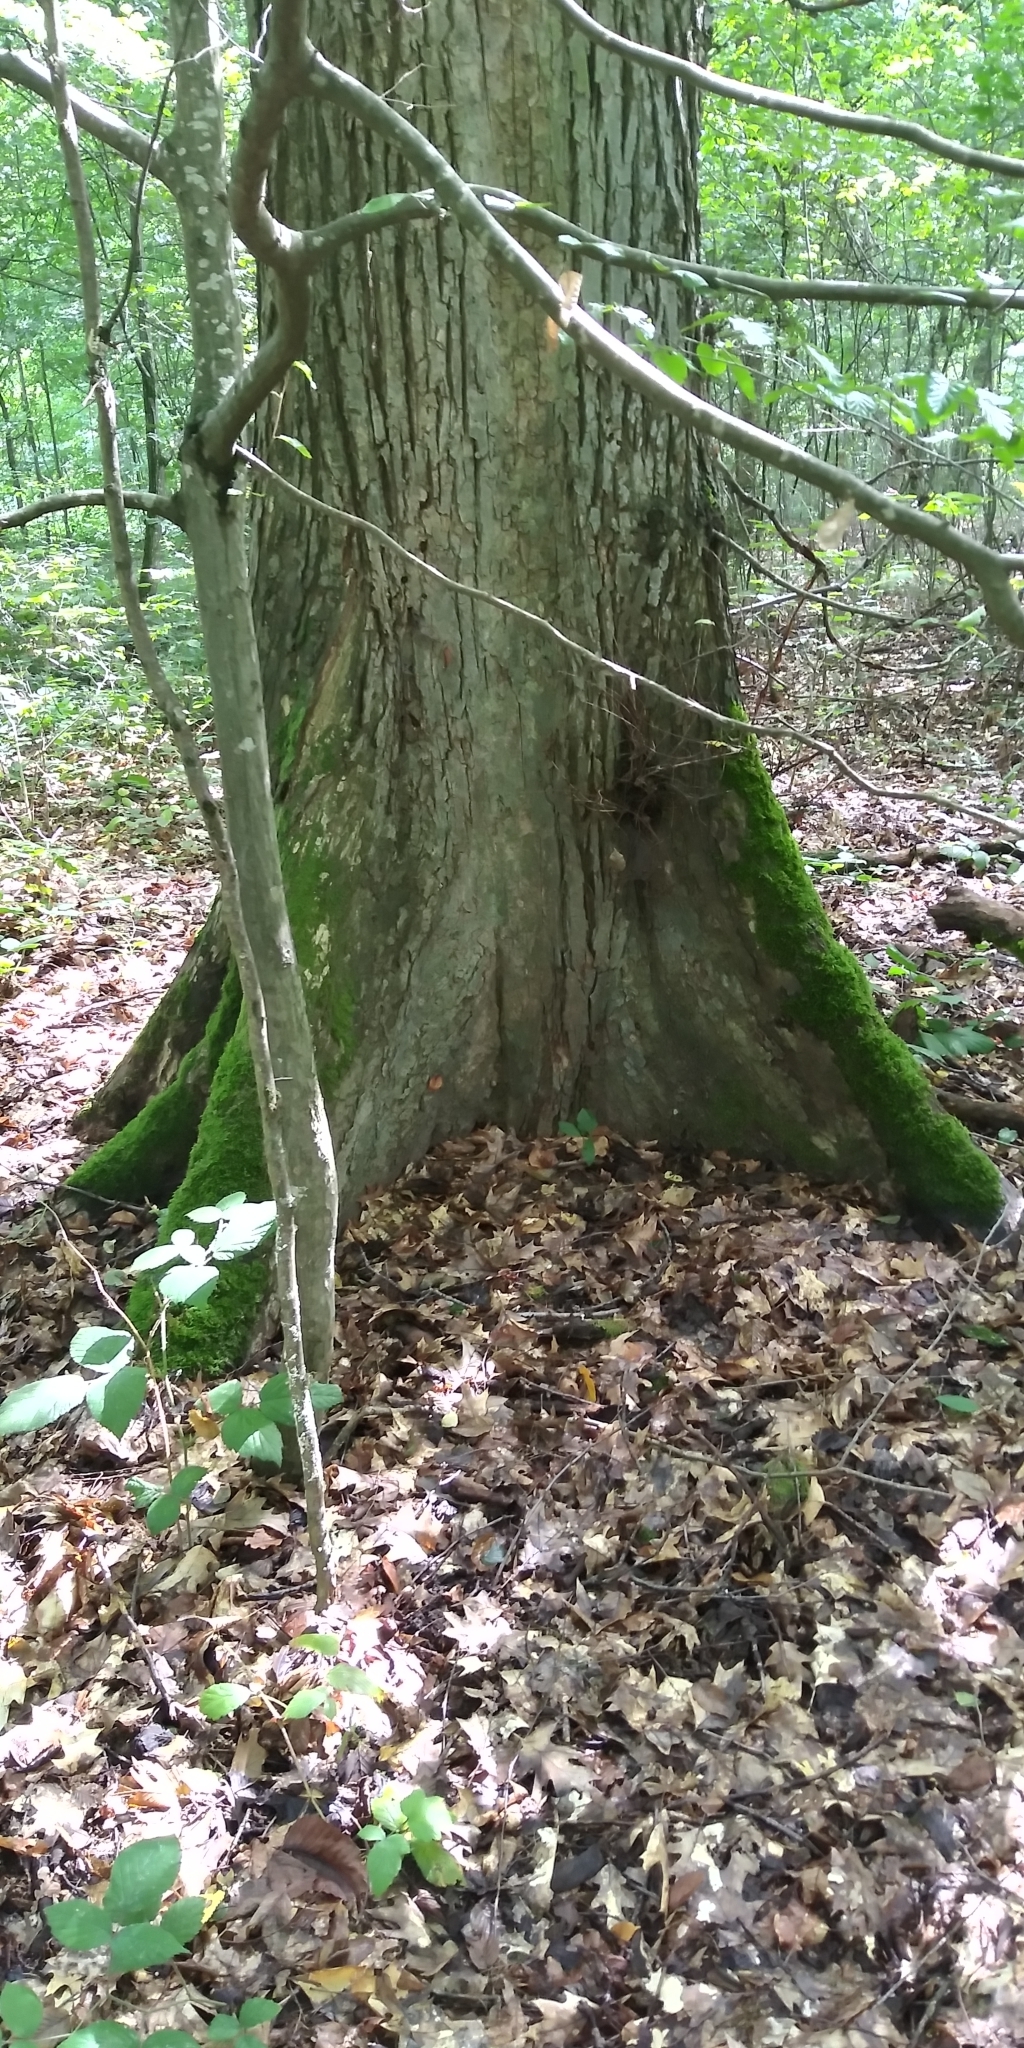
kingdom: Plantae
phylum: Tracheophyta
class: Magnoliopsida
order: Rosales
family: Ulmaceae
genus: Ulmus
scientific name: Ulmus laevis
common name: European white-elm
